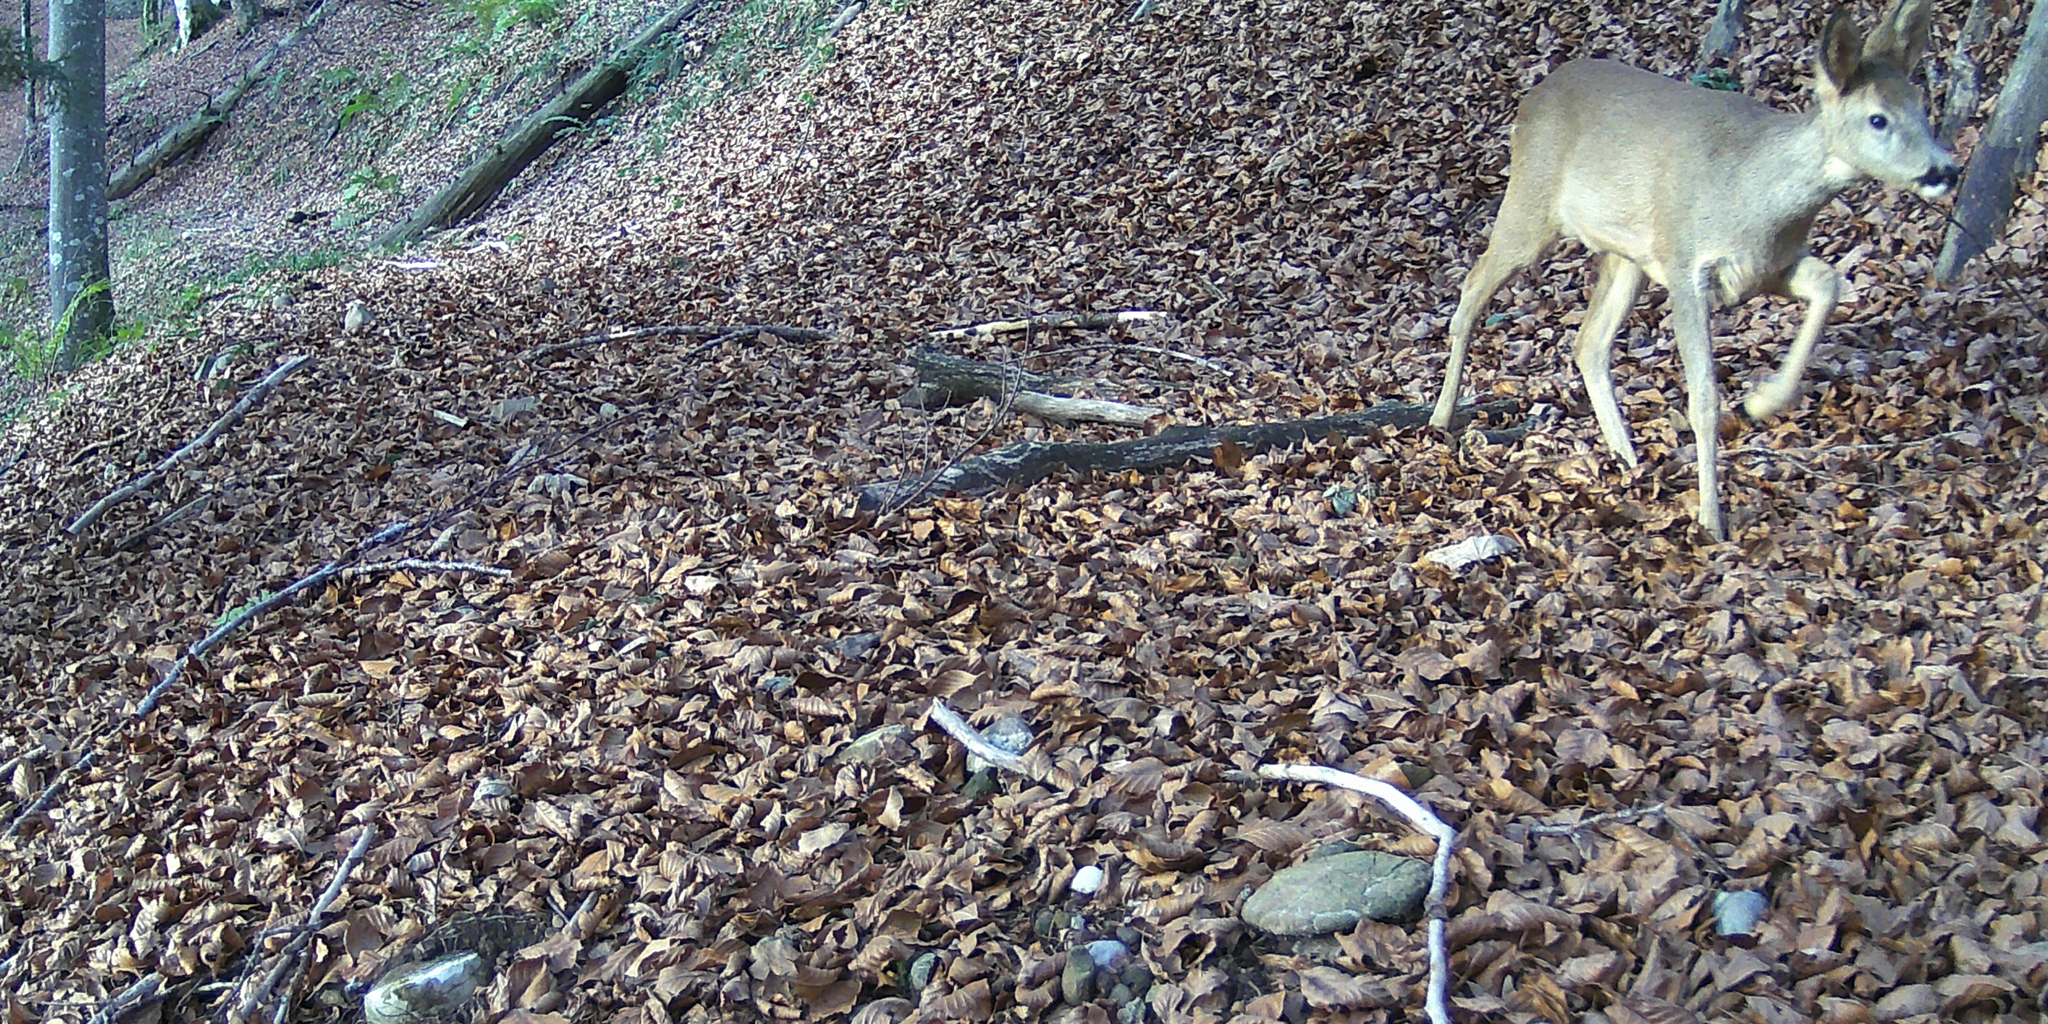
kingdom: Animalia
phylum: Chordata
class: Mammalia
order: Artiodactyla
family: Cervidae
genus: Capreolus
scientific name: Capreolus capreolus
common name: Western roe deer
